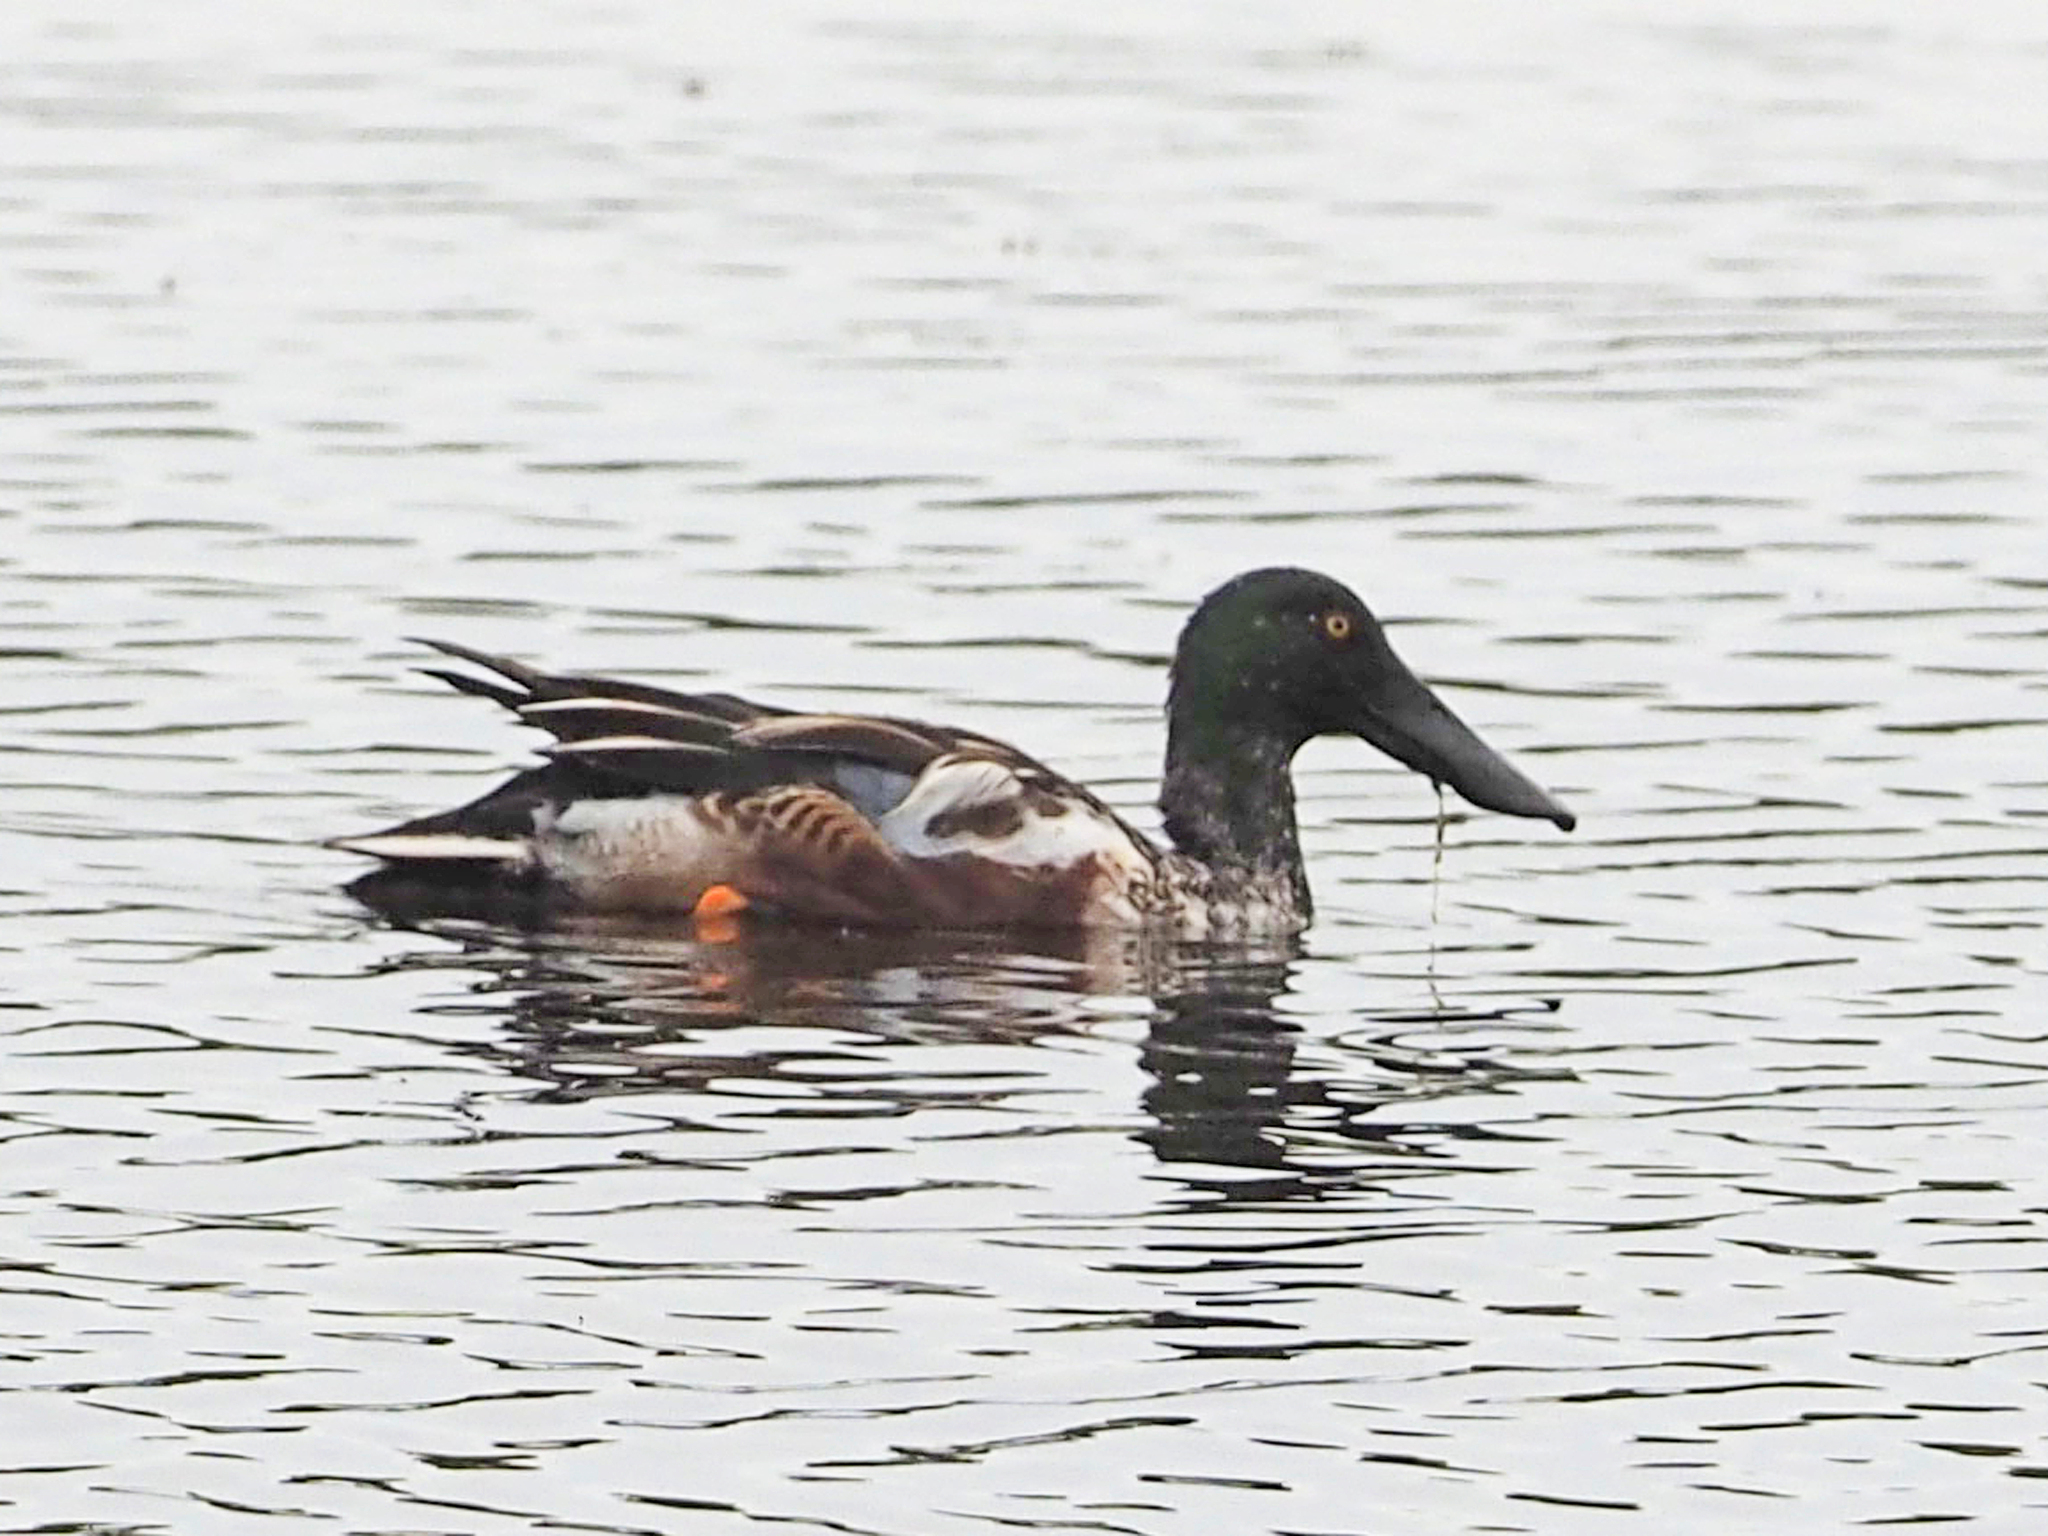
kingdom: Animalia
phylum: Chordata
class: Aves
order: Anseriformes
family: Anatidae
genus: Spatula
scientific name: Spatula clypeata
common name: Northern shoveler
